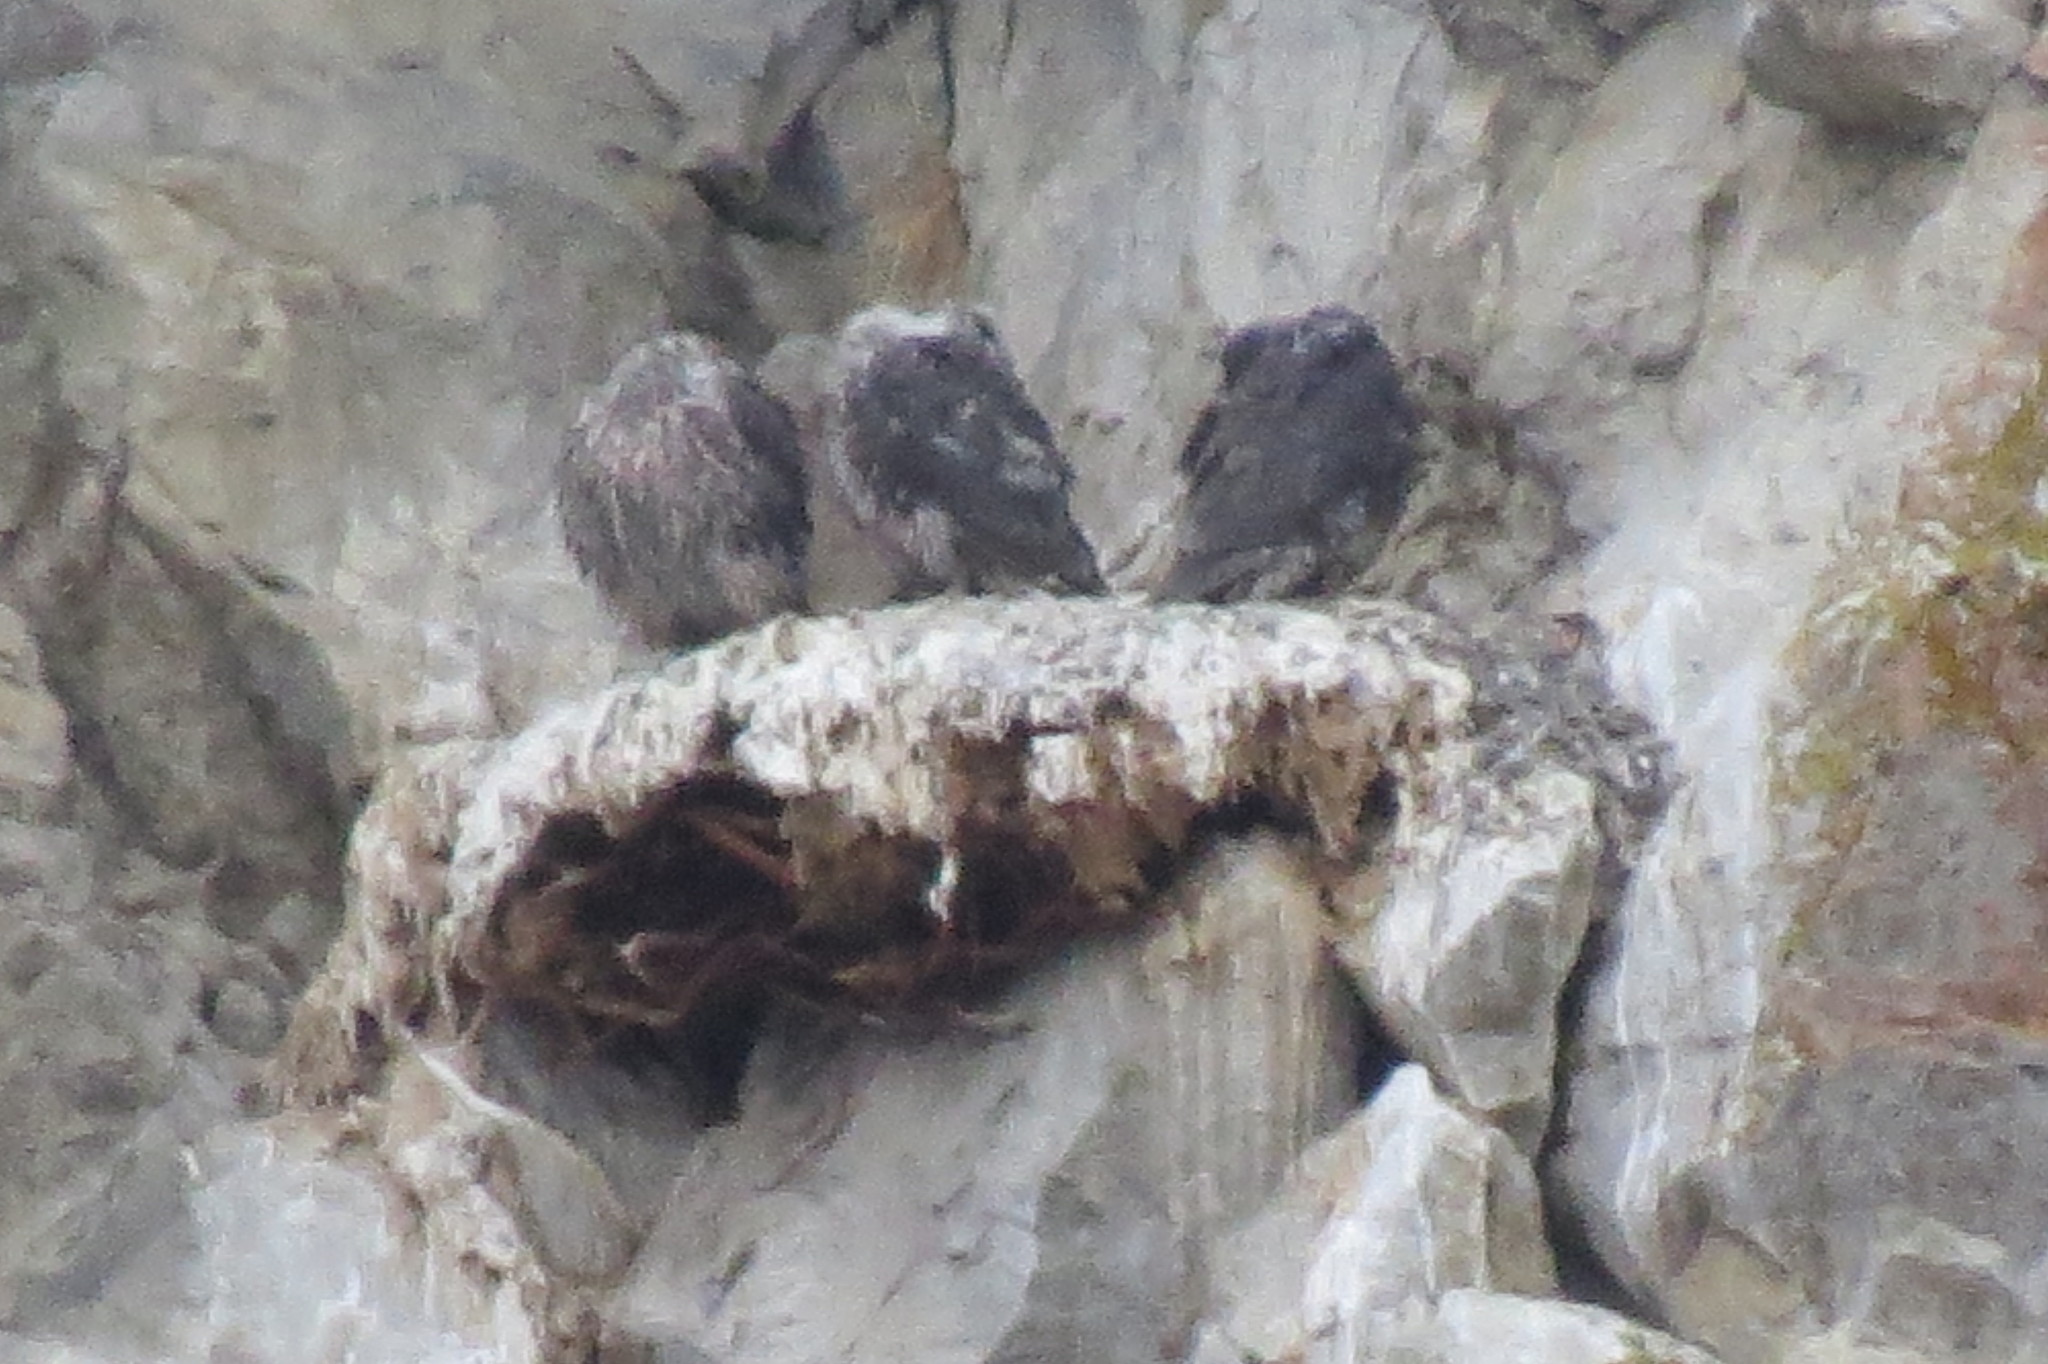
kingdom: Animalia
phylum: Chordata
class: Aves
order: Falconiformes
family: Falconidae
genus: Falco
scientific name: Falco rusticolus
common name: Gyrfalcon
